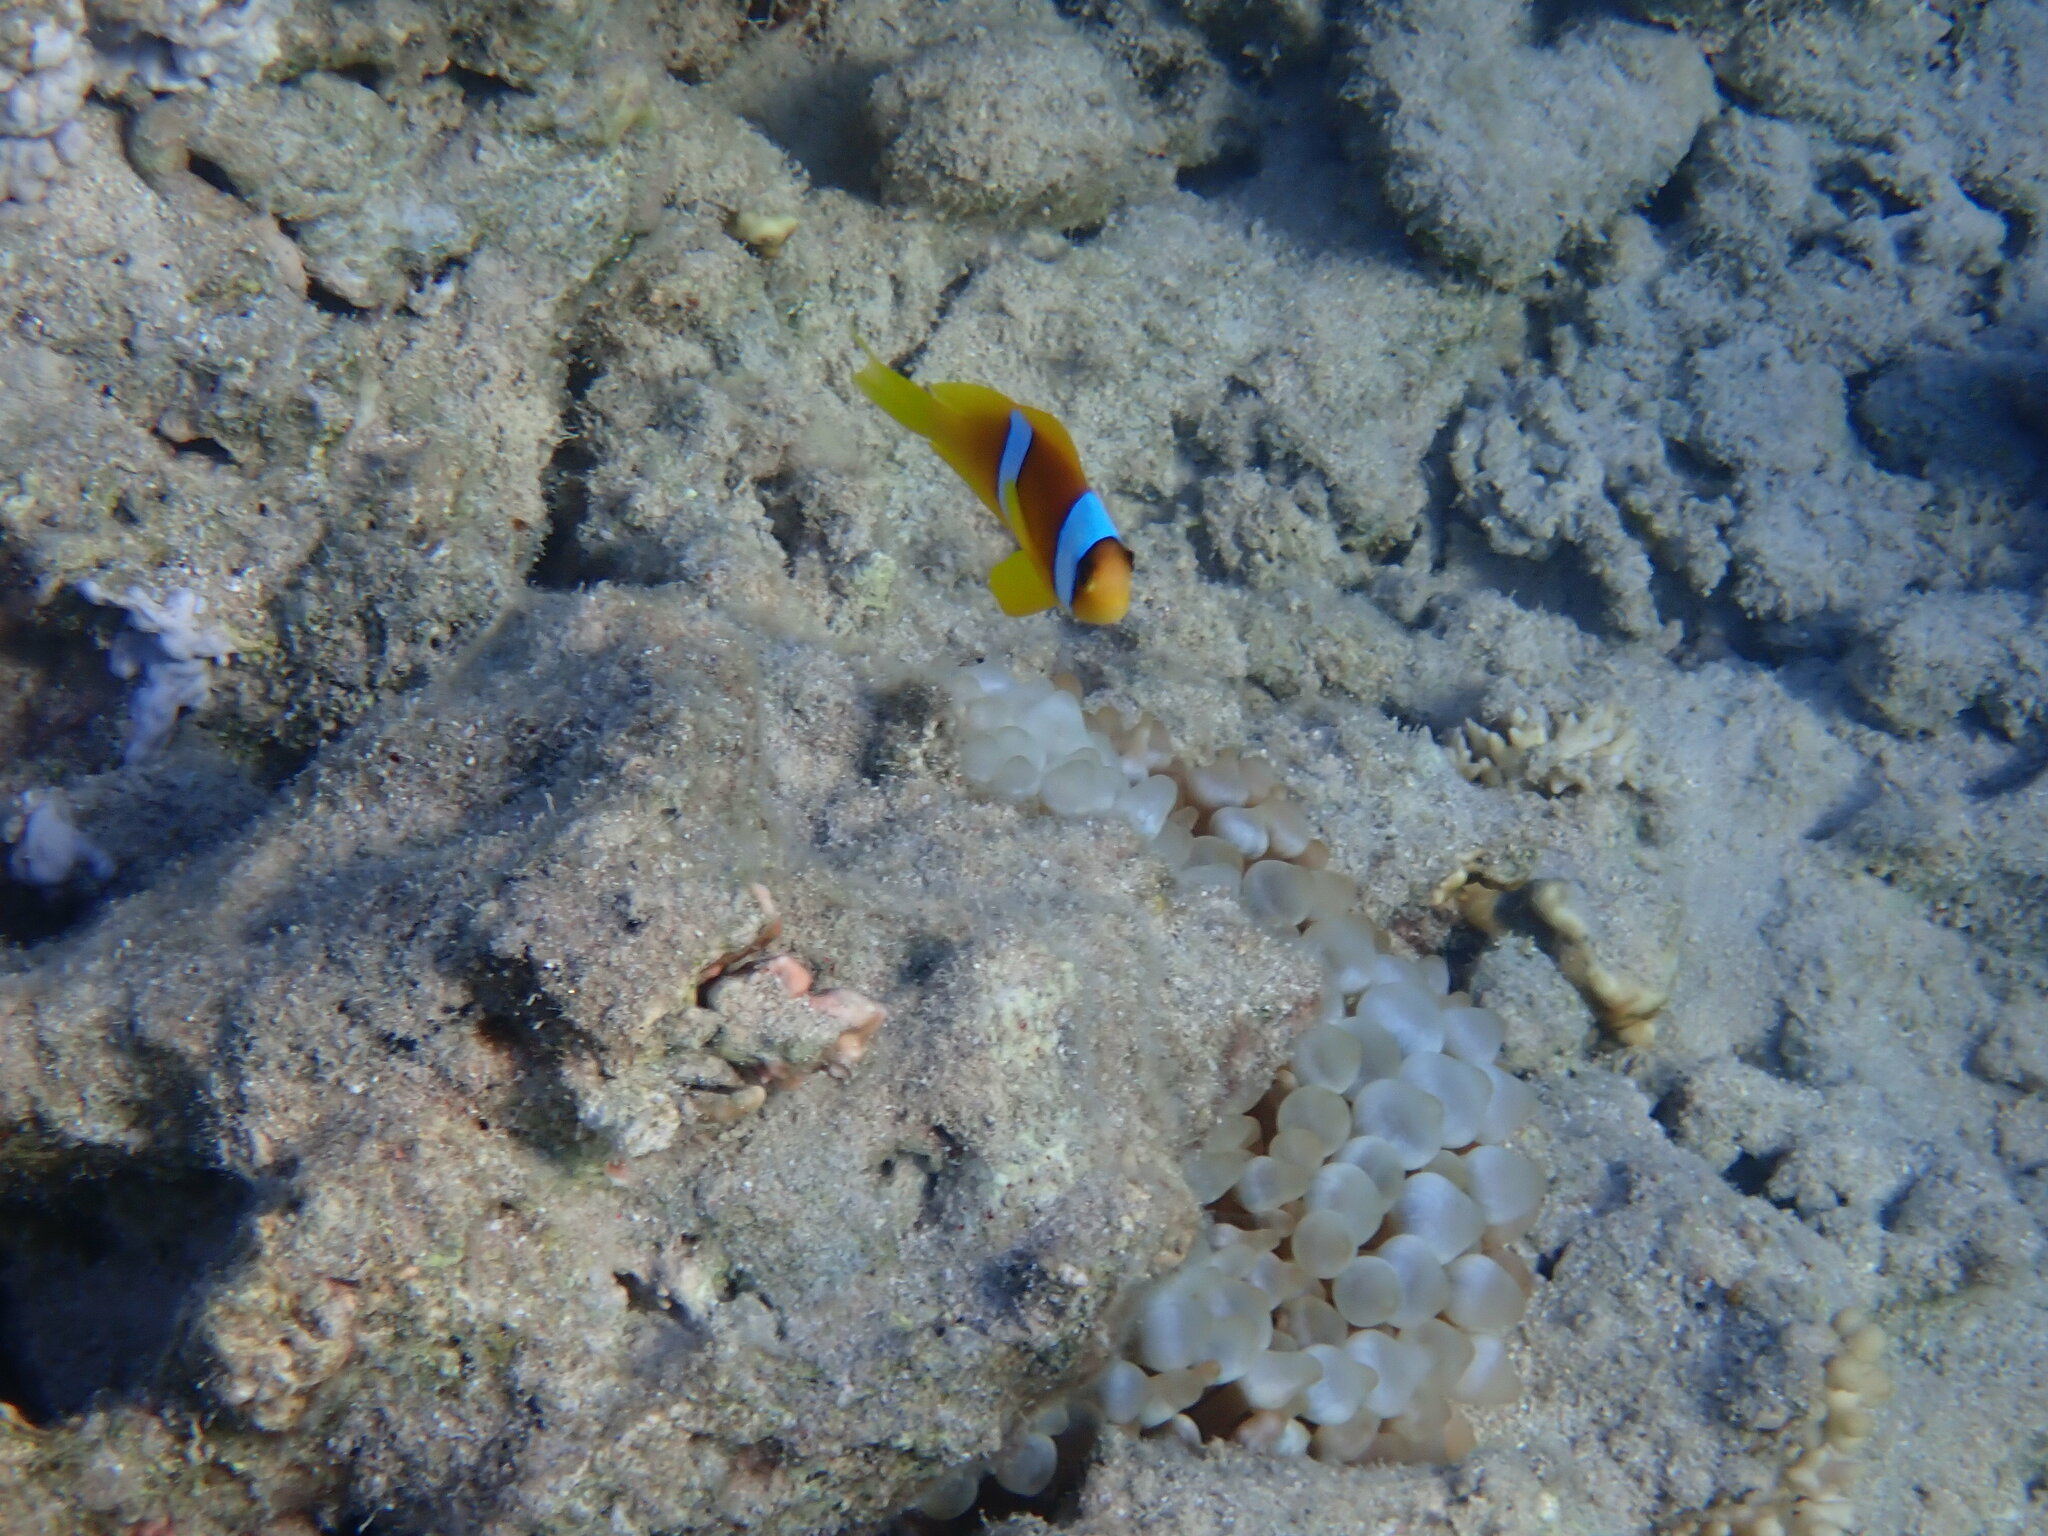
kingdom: Animalia
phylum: Chordata
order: Perciformes
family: Pomacentridae
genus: Amphiprion
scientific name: Amphiprion bicinctus
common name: Two-banded anemonefish
